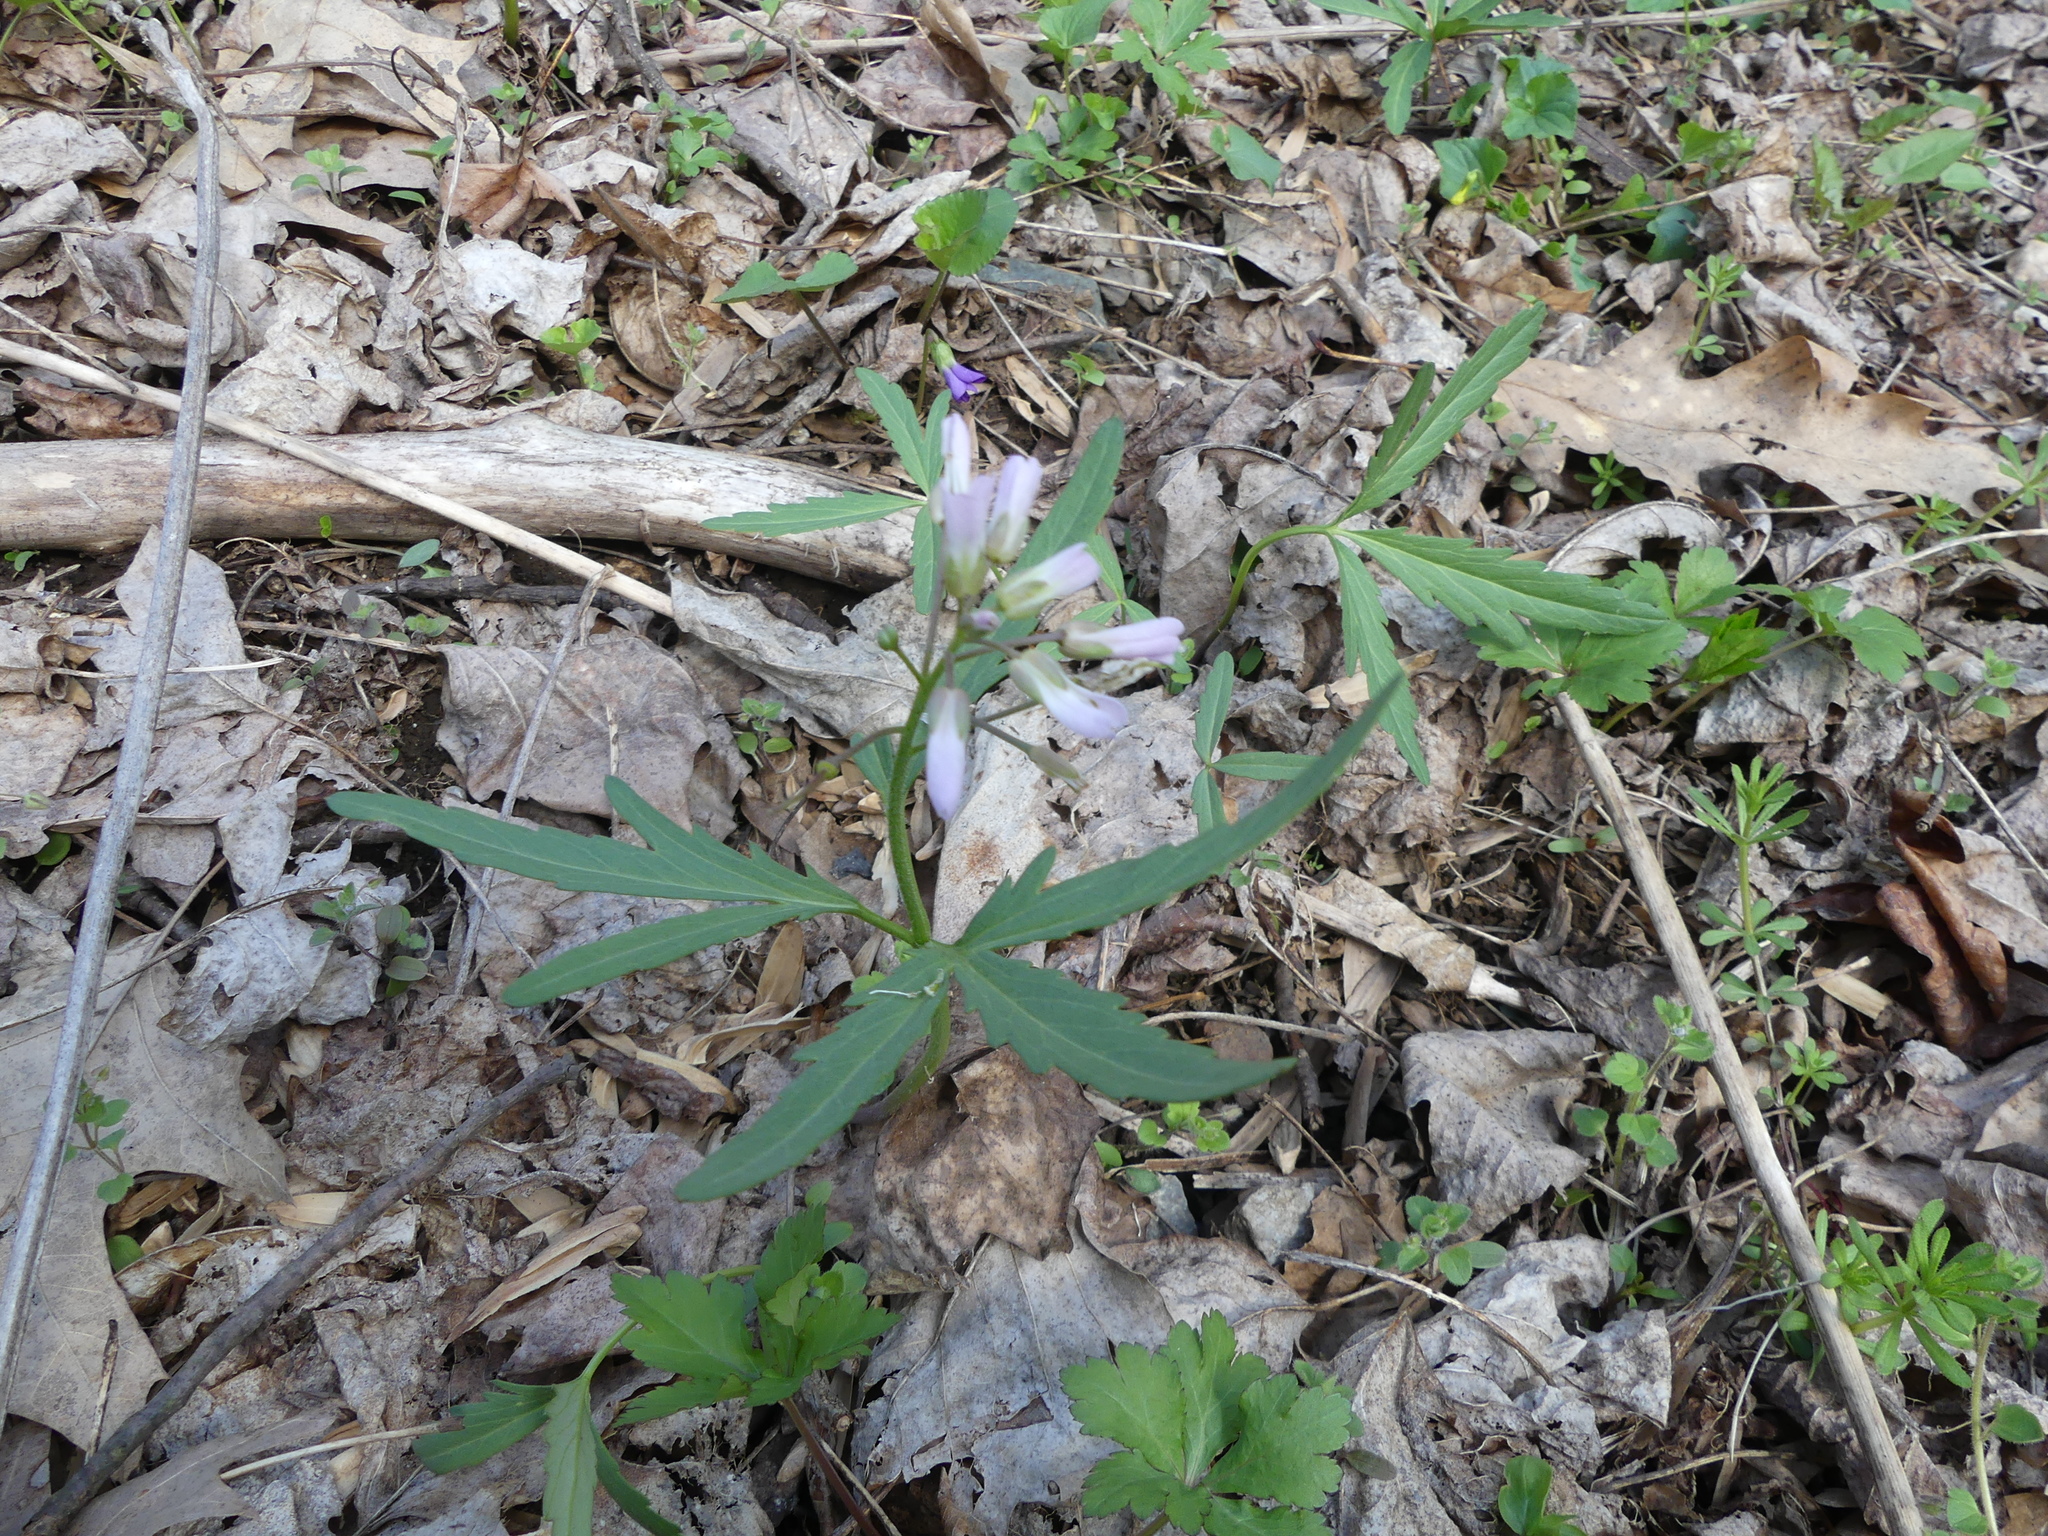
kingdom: Plantae
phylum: Tracheophyta
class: Magnoliopsida
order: Brassicales
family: Brassicaceae
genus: Cardamine
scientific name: Cardamine concatenata
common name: Cut-leaf toothcup
